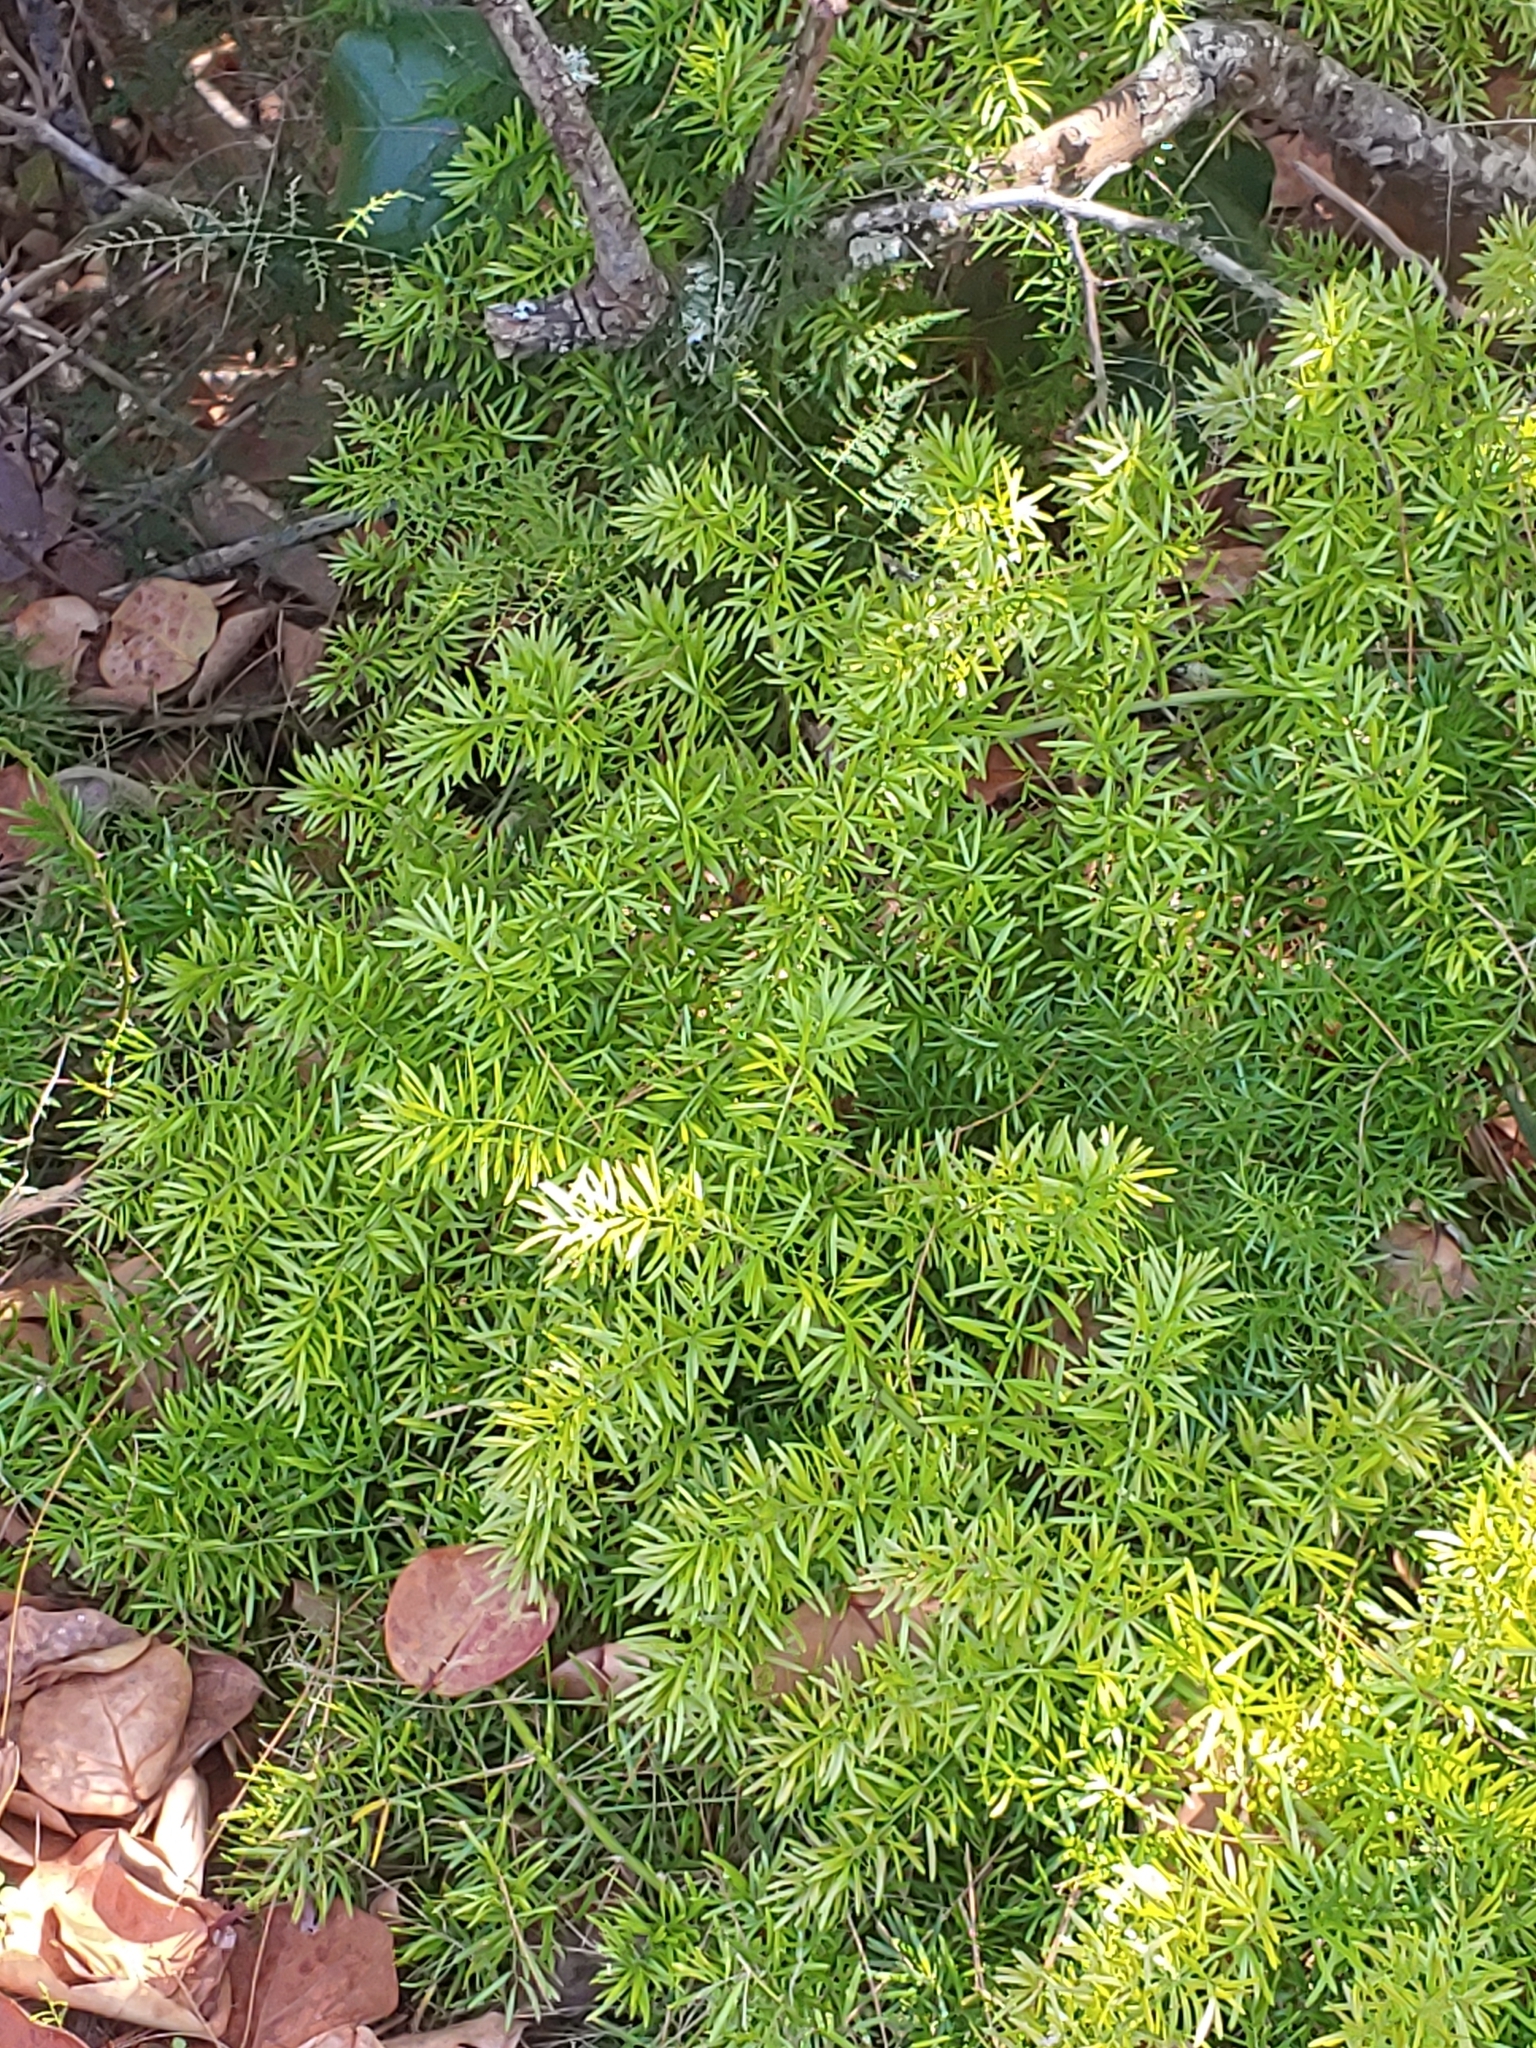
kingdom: Plantae
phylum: Tracheophyta
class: Liliopsida
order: Asparagales
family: Asparagaceae
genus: Asparagus
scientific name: Asparagus aethiopicus
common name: Sprenger's asparagus fern
